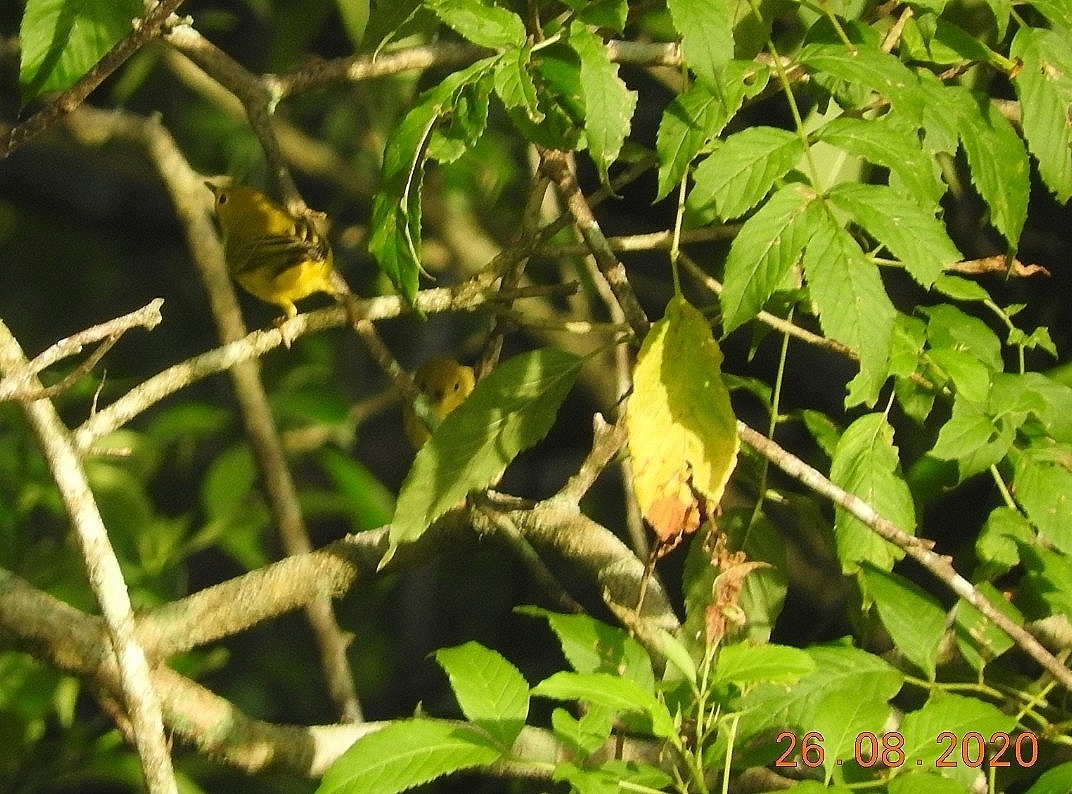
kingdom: Animalia
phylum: Chordata
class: Aves
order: Passeriformes
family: Parulidae
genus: Setophaga
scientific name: Setophaga petechia
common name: Yellow warbler
